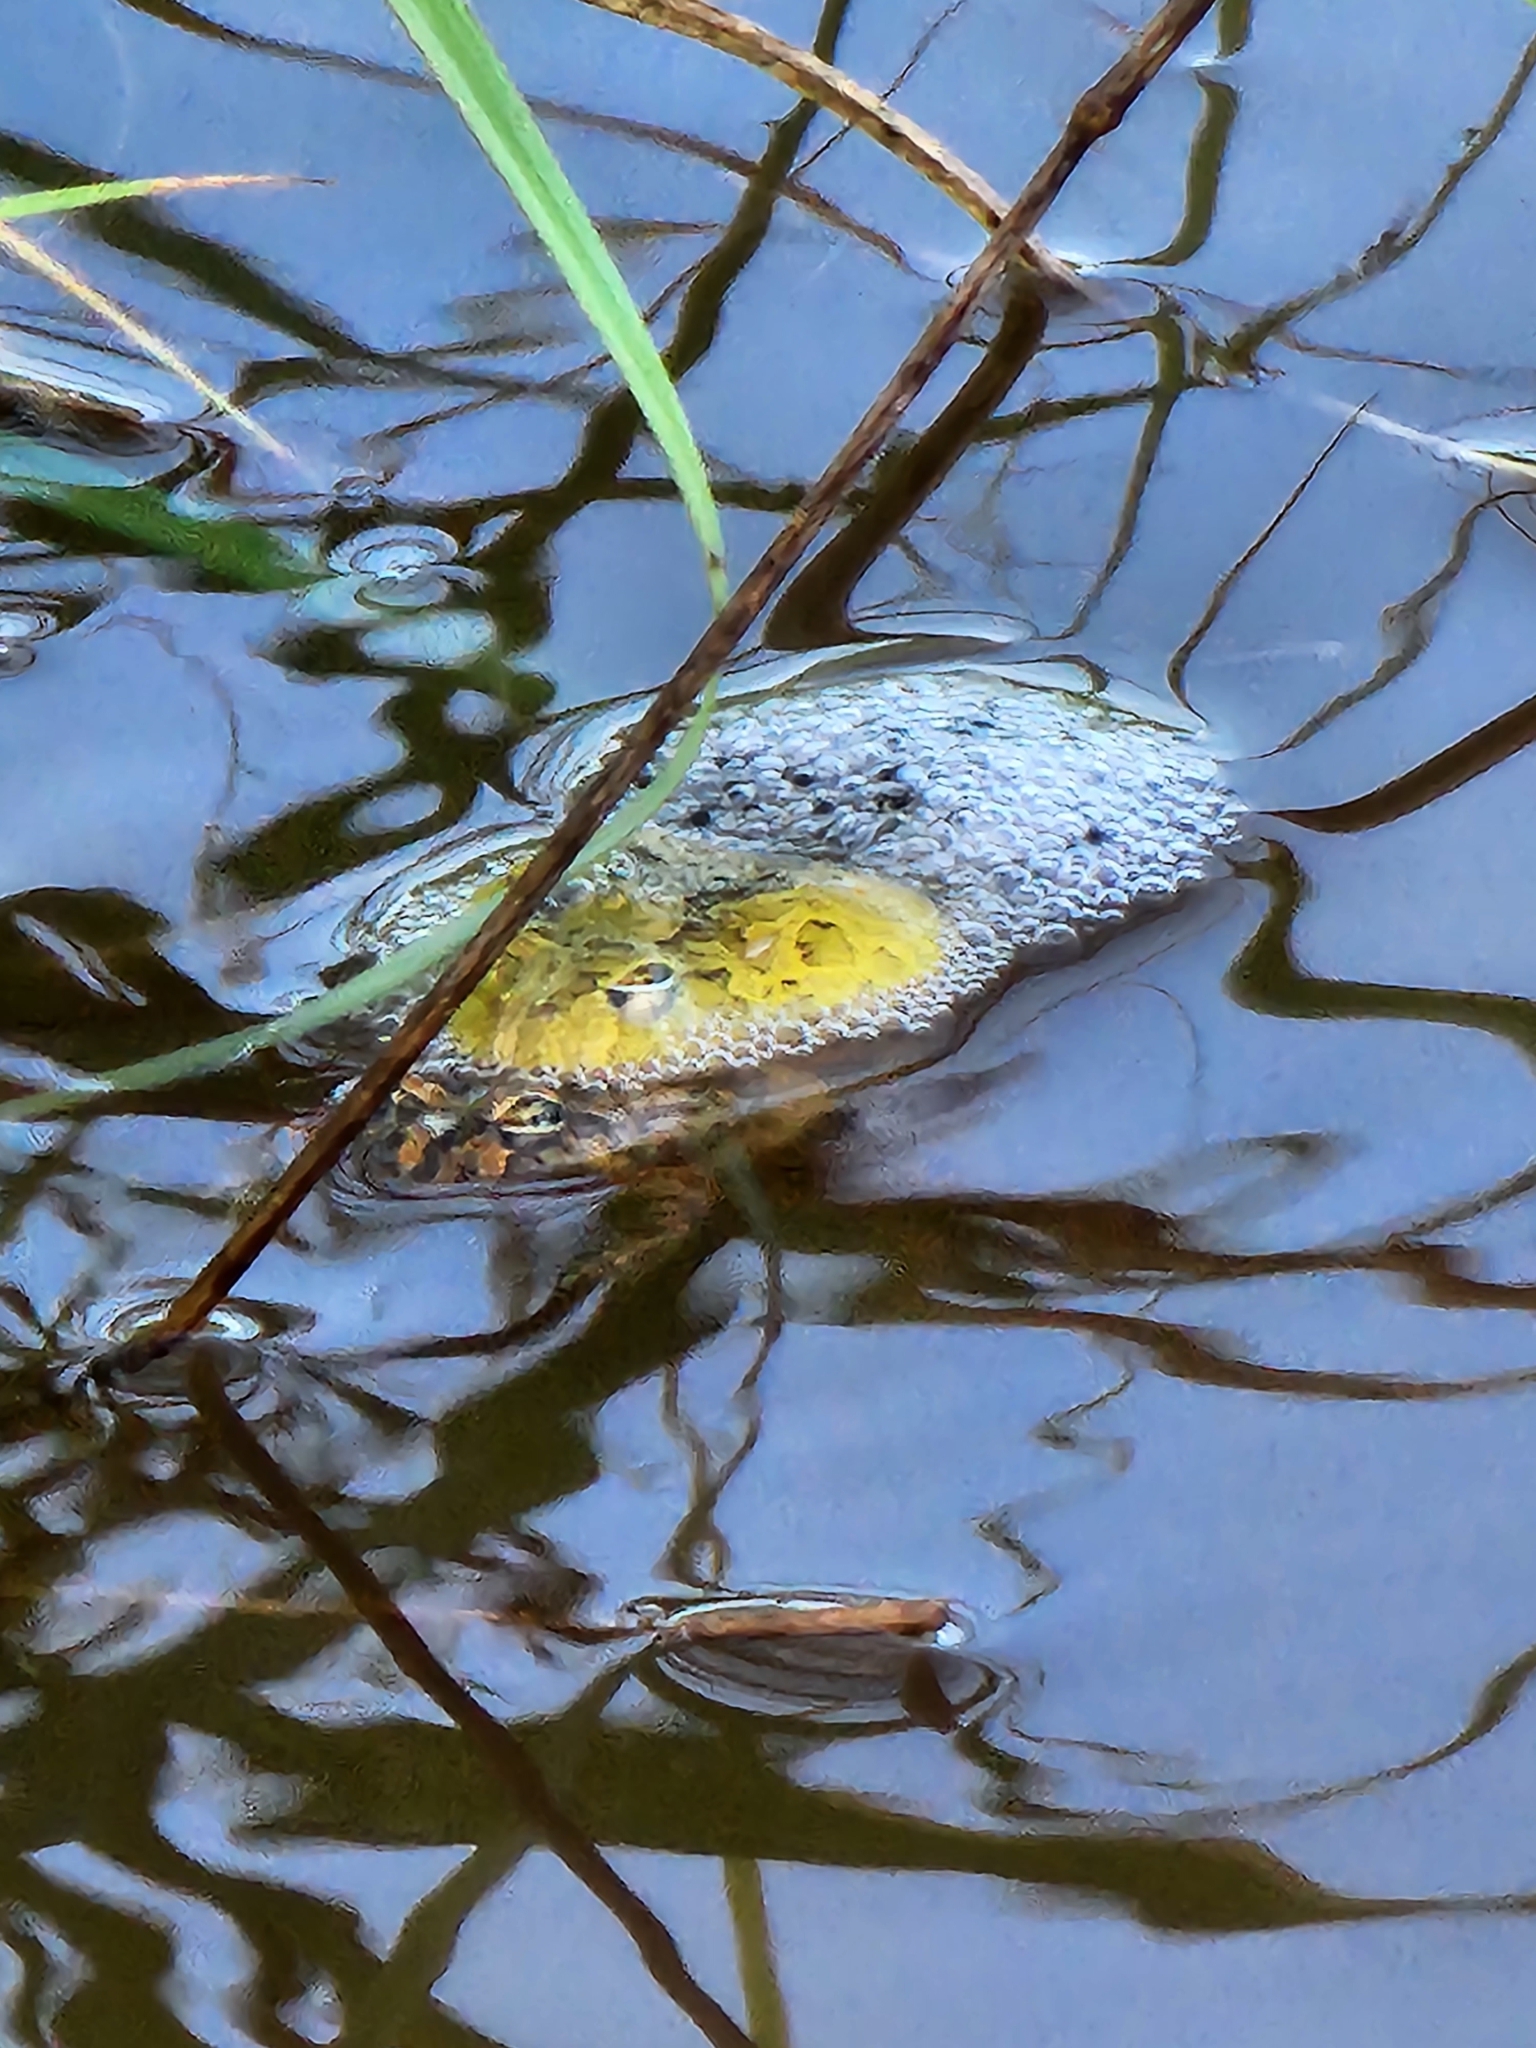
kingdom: Animalia
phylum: Chordata
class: Amphibia
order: Anura
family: Limnodynastidae
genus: Platyplectrum
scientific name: Platyplectrum ornatum
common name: Ornate burrowing frog
